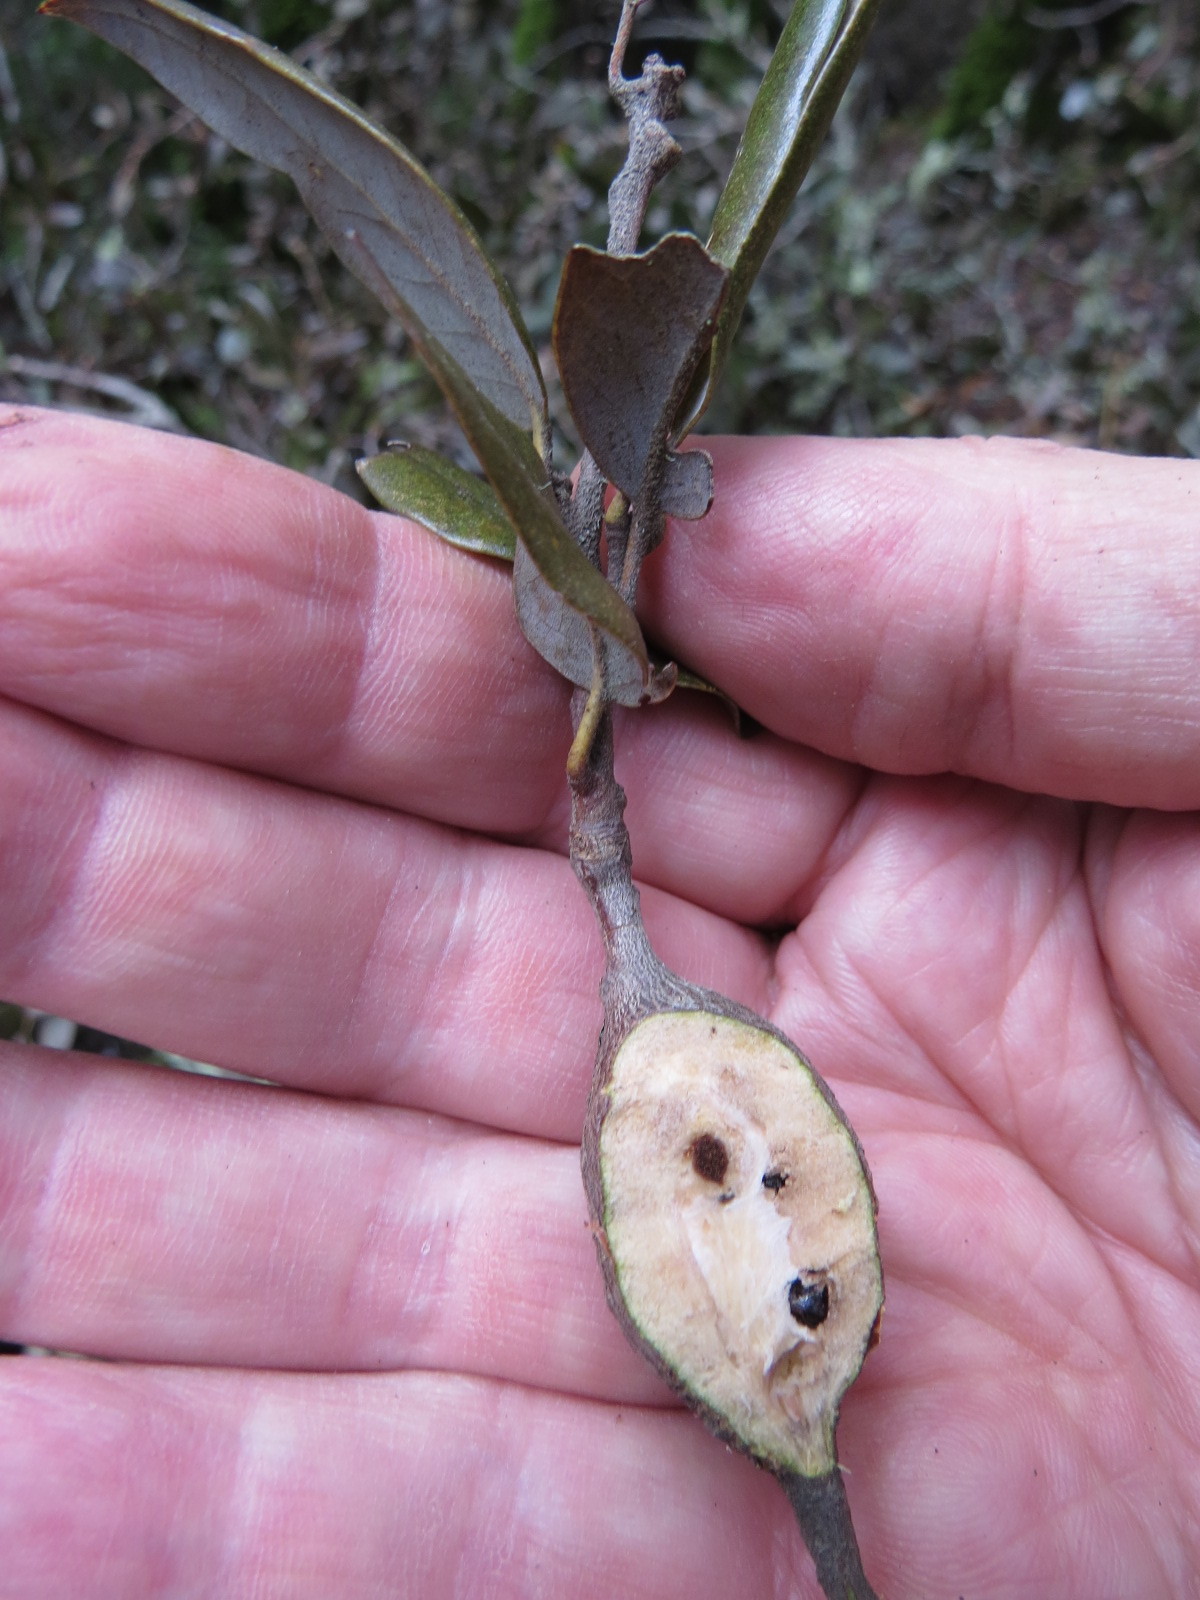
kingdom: Animalia
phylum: Arthropoda
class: Insecta
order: Hymenoptera
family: Cynipidae
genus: Disholcaspis
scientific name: Disholcaspis spectabilis
